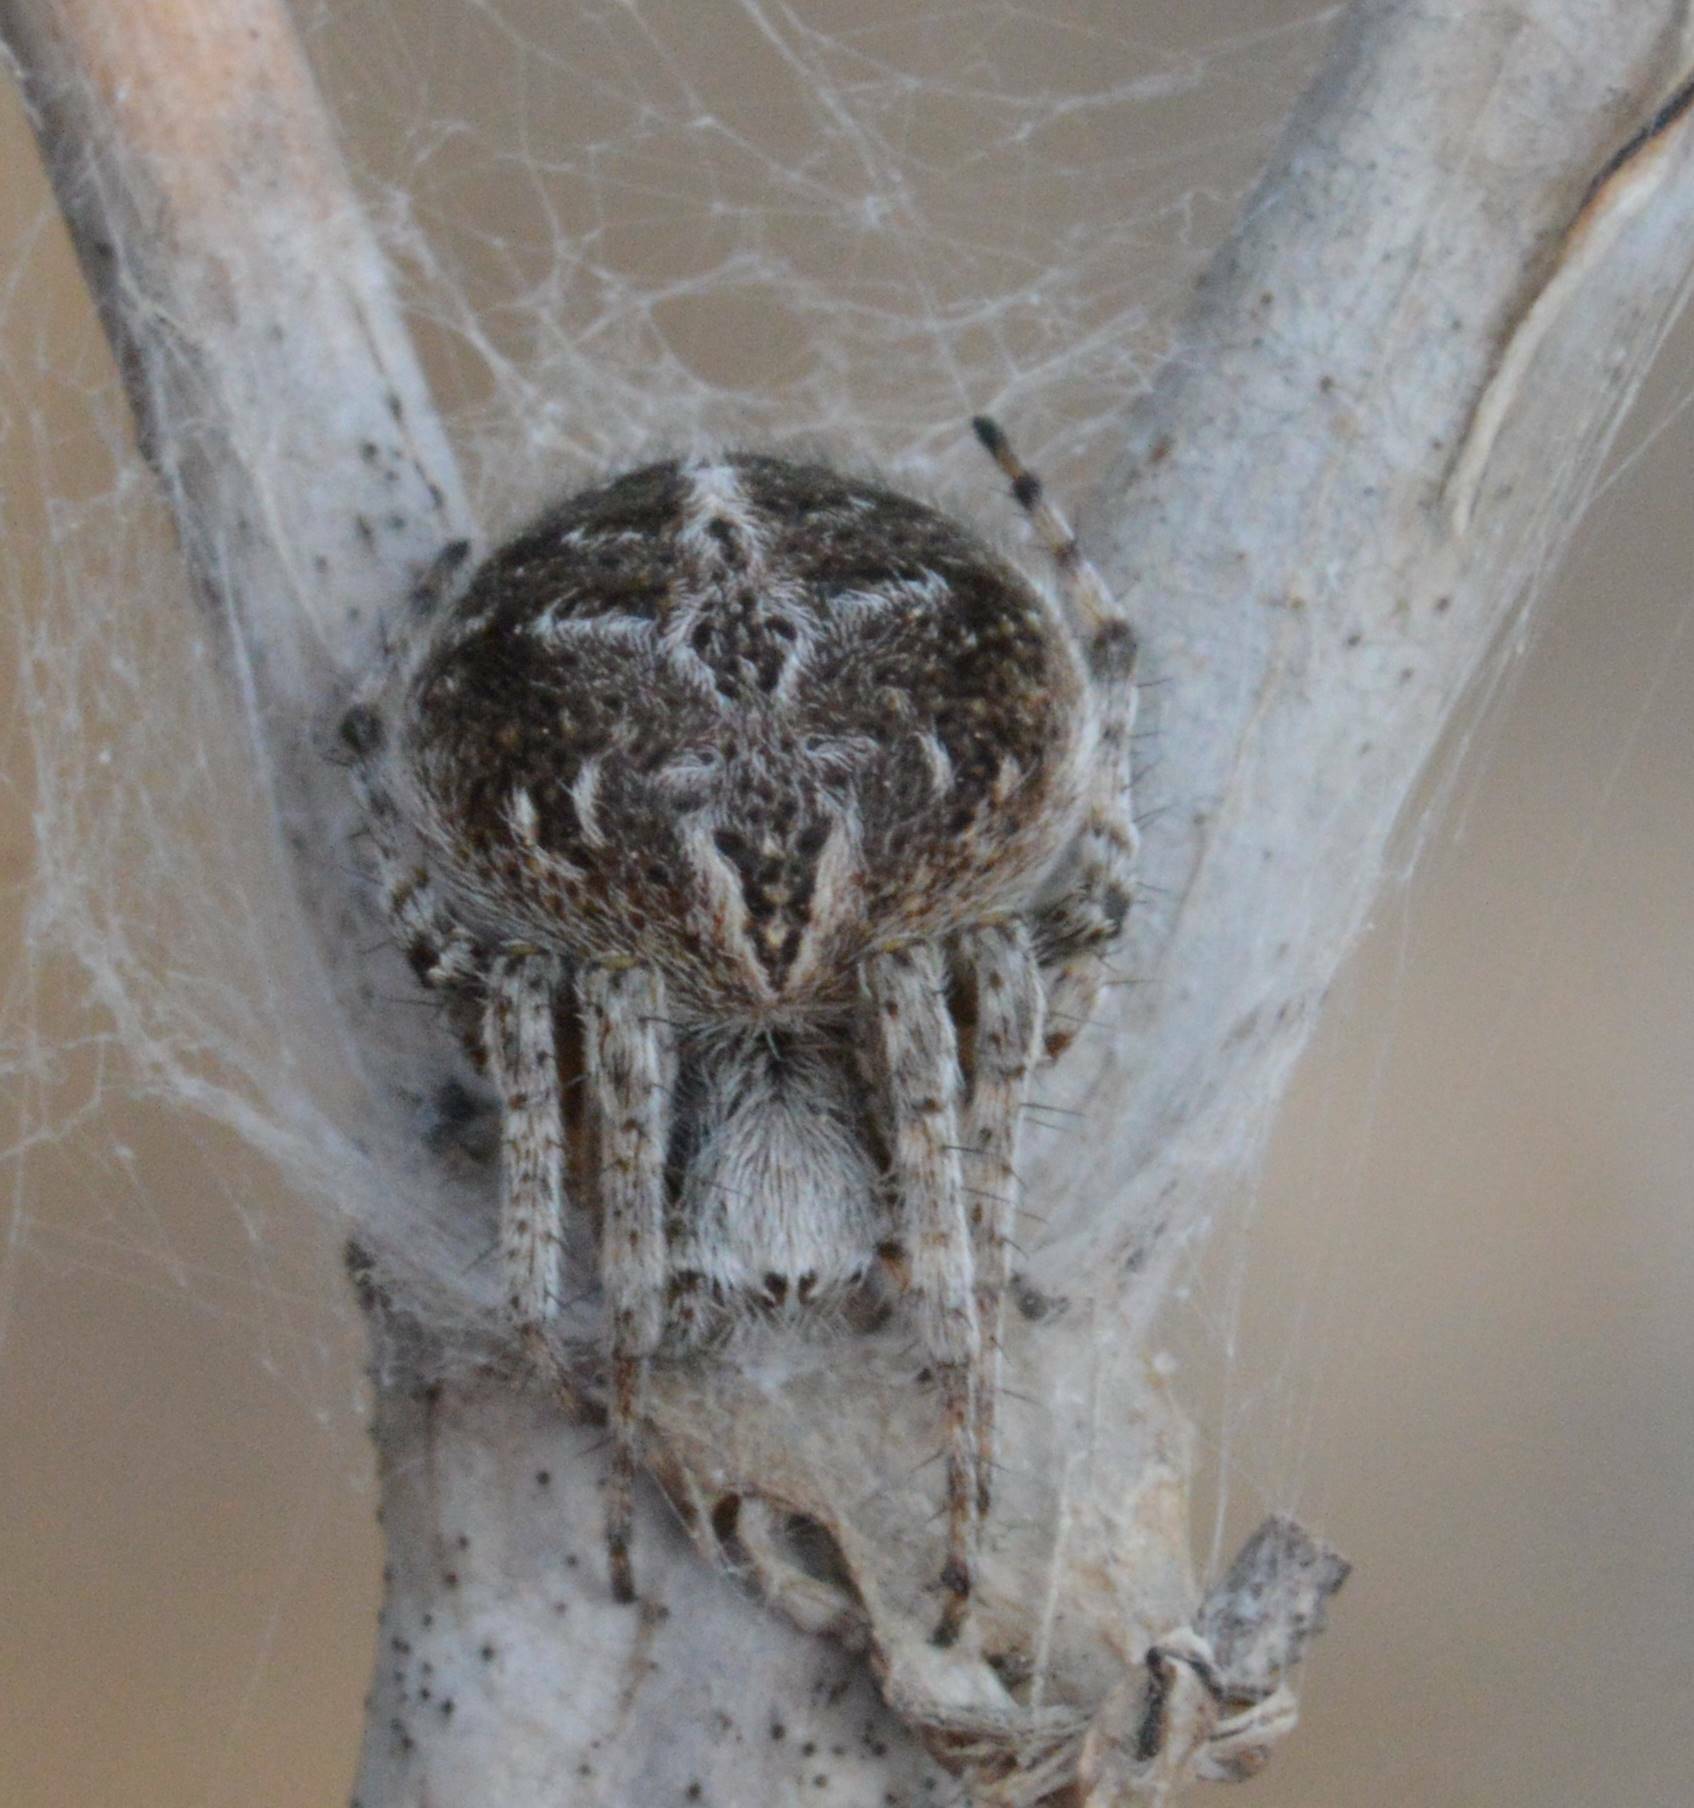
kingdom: Animalia
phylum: Arthropoda
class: Arachnida
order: Araneae
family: Araneidae
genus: Agalenatea
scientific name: Agalenatea redii
